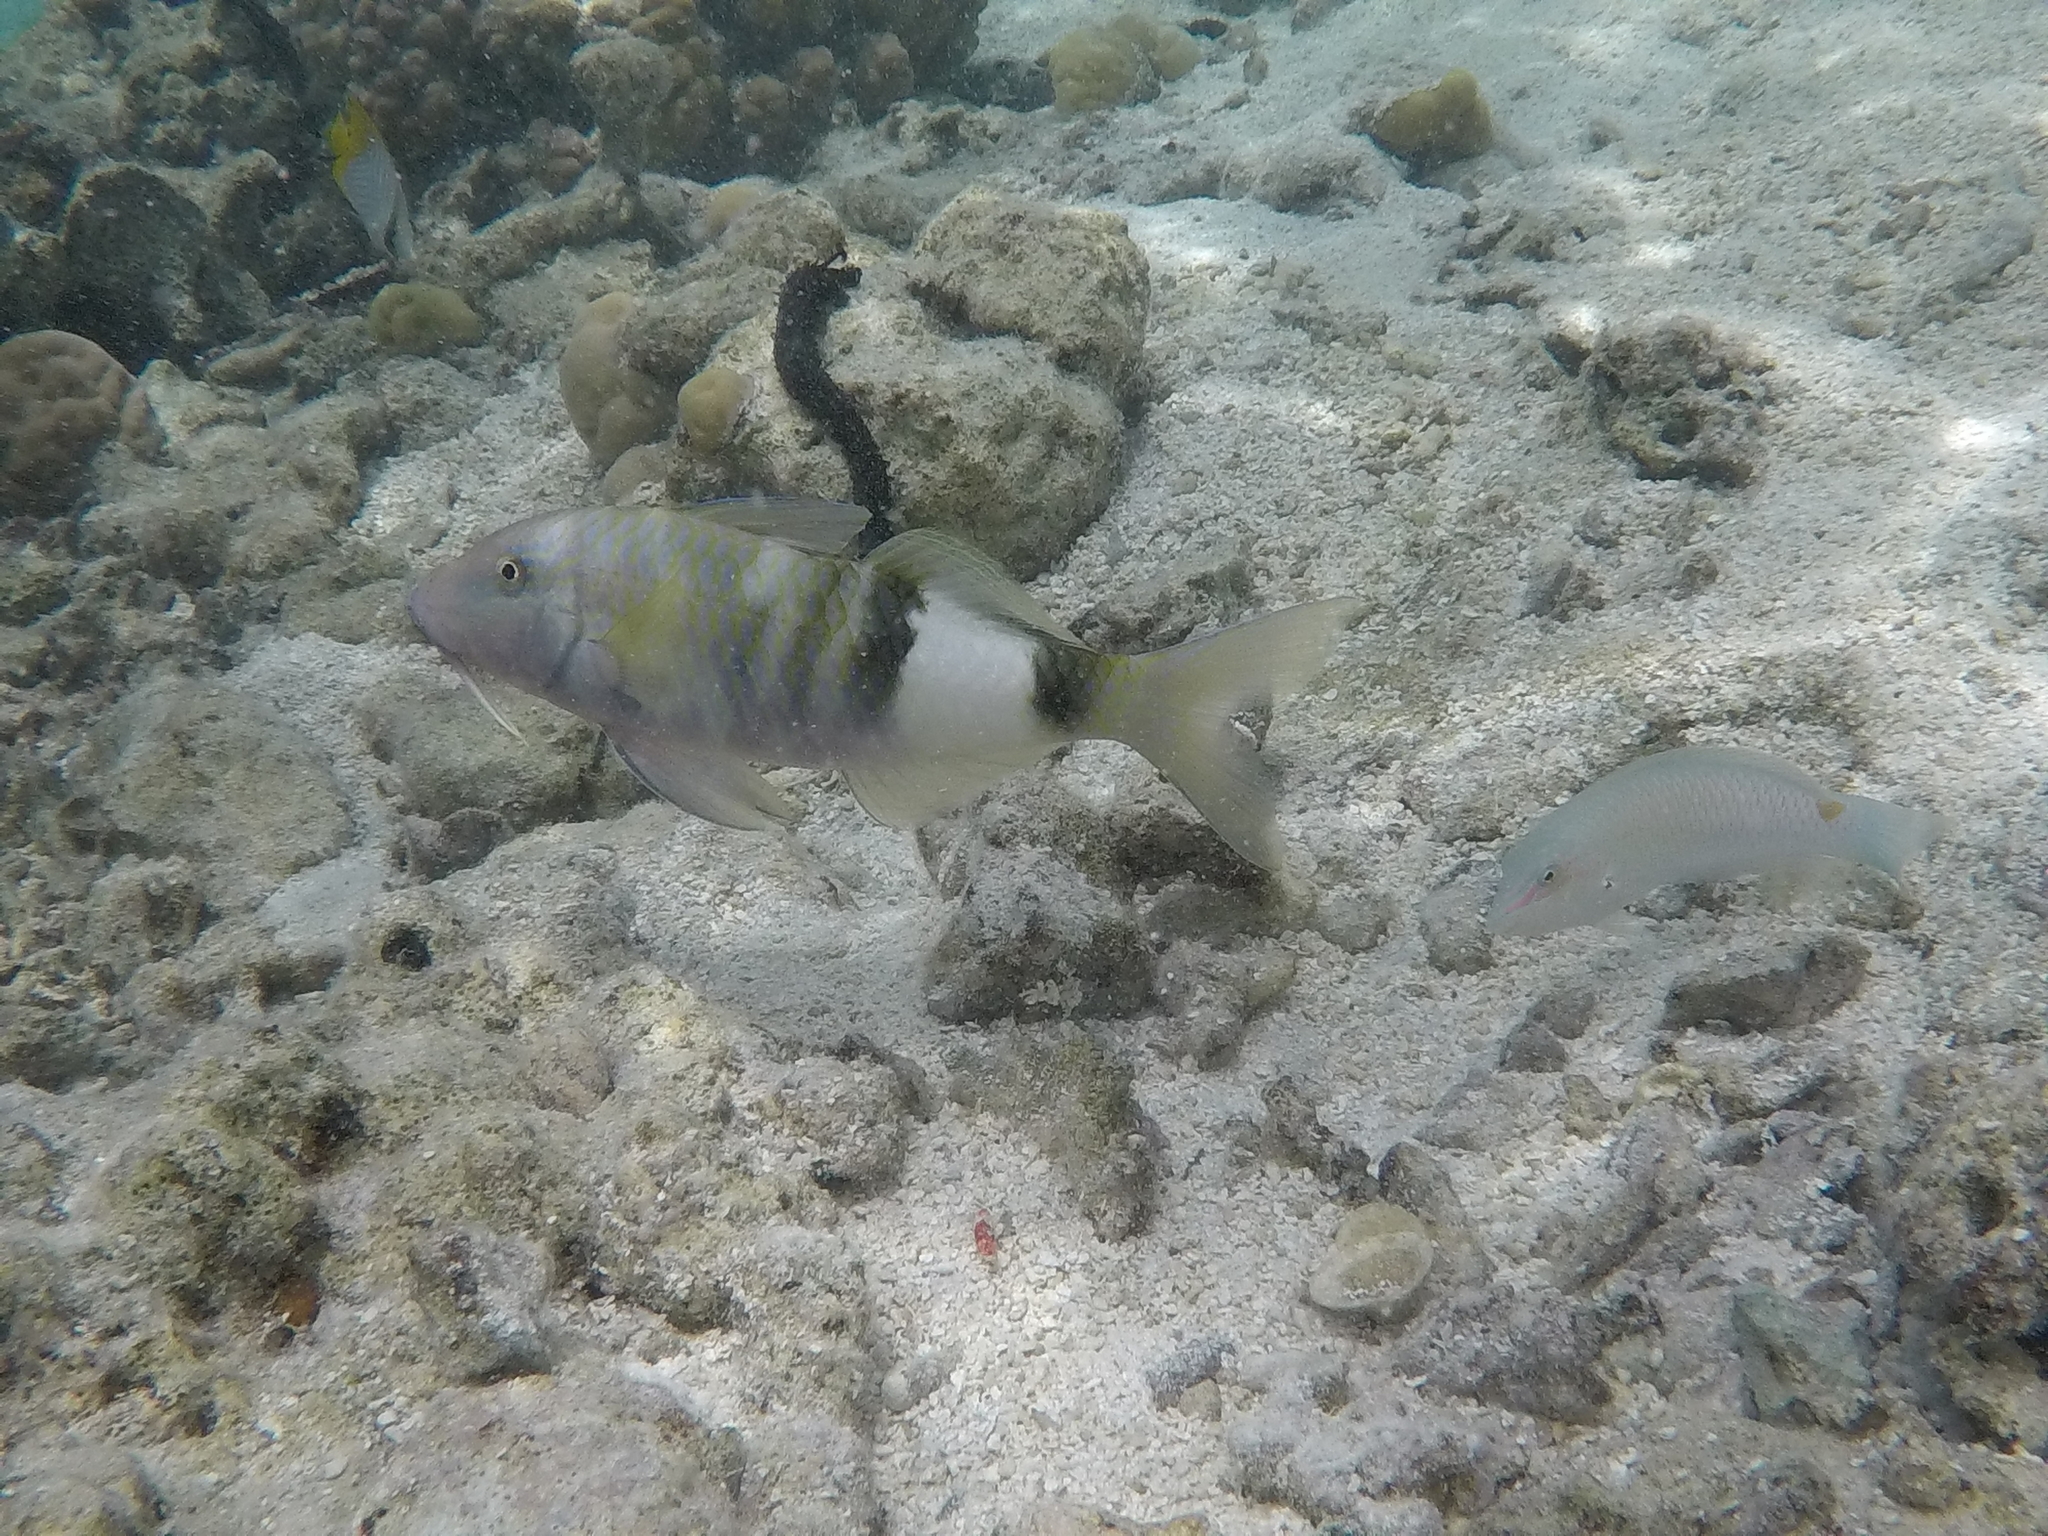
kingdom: Animalia
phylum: Chordata
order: Perciformes
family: Mullidae
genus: Parupeneus
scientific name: Parupeneus multifasciatus
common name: Manybar goatfish
